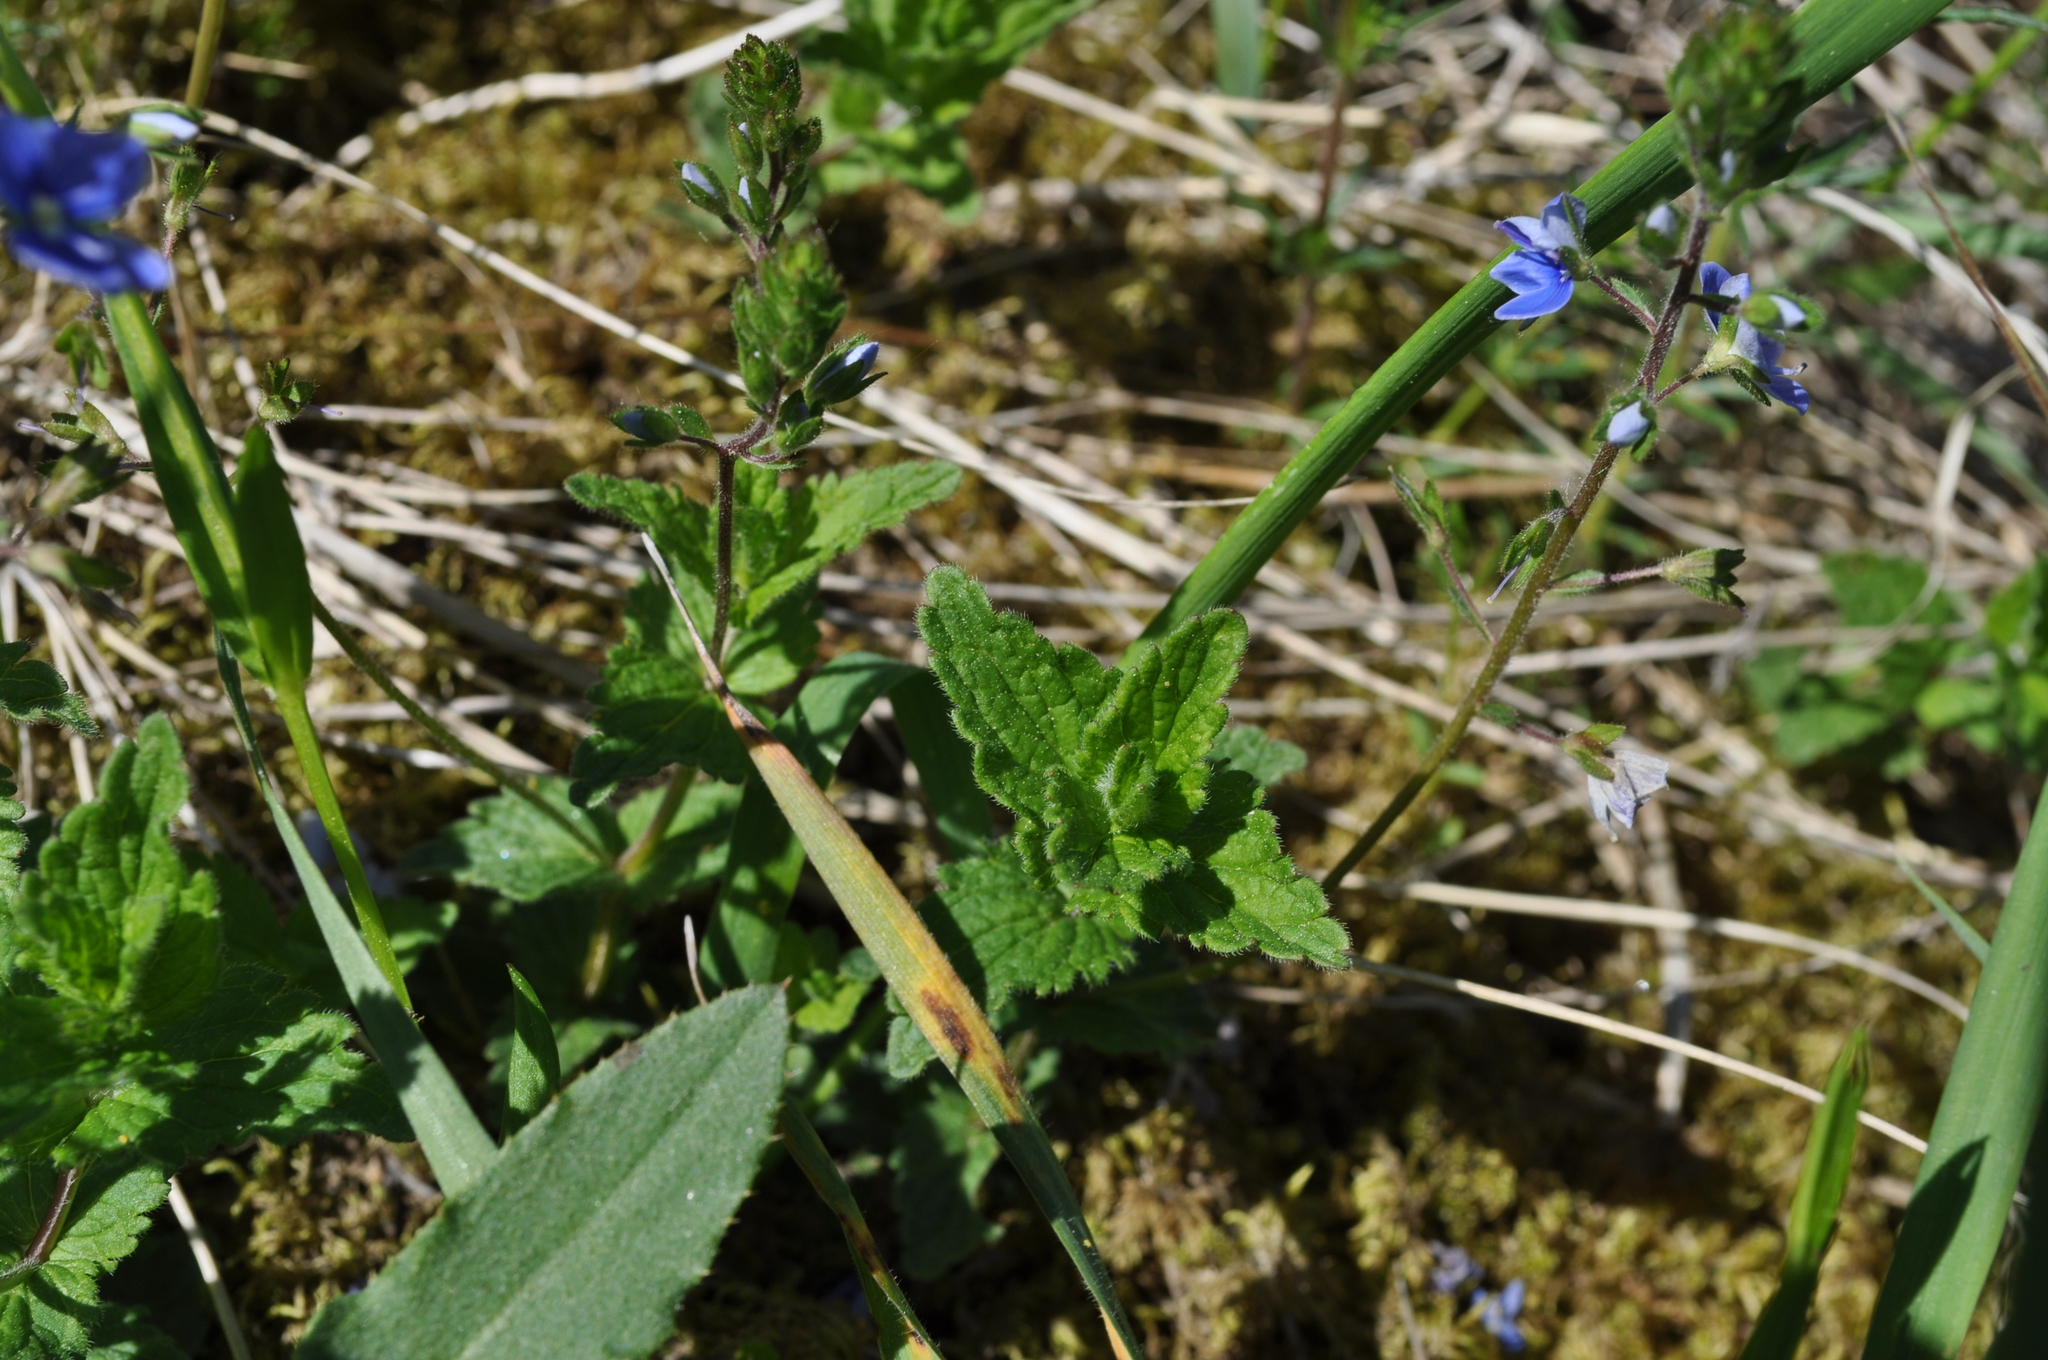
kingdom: Plantae
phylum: Tracheophyta
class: Magnoliopsida
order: Lamiales
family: Plantaginaceae
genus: Veronica
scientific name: Veronica chamaedrys
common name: Germander speedwell
